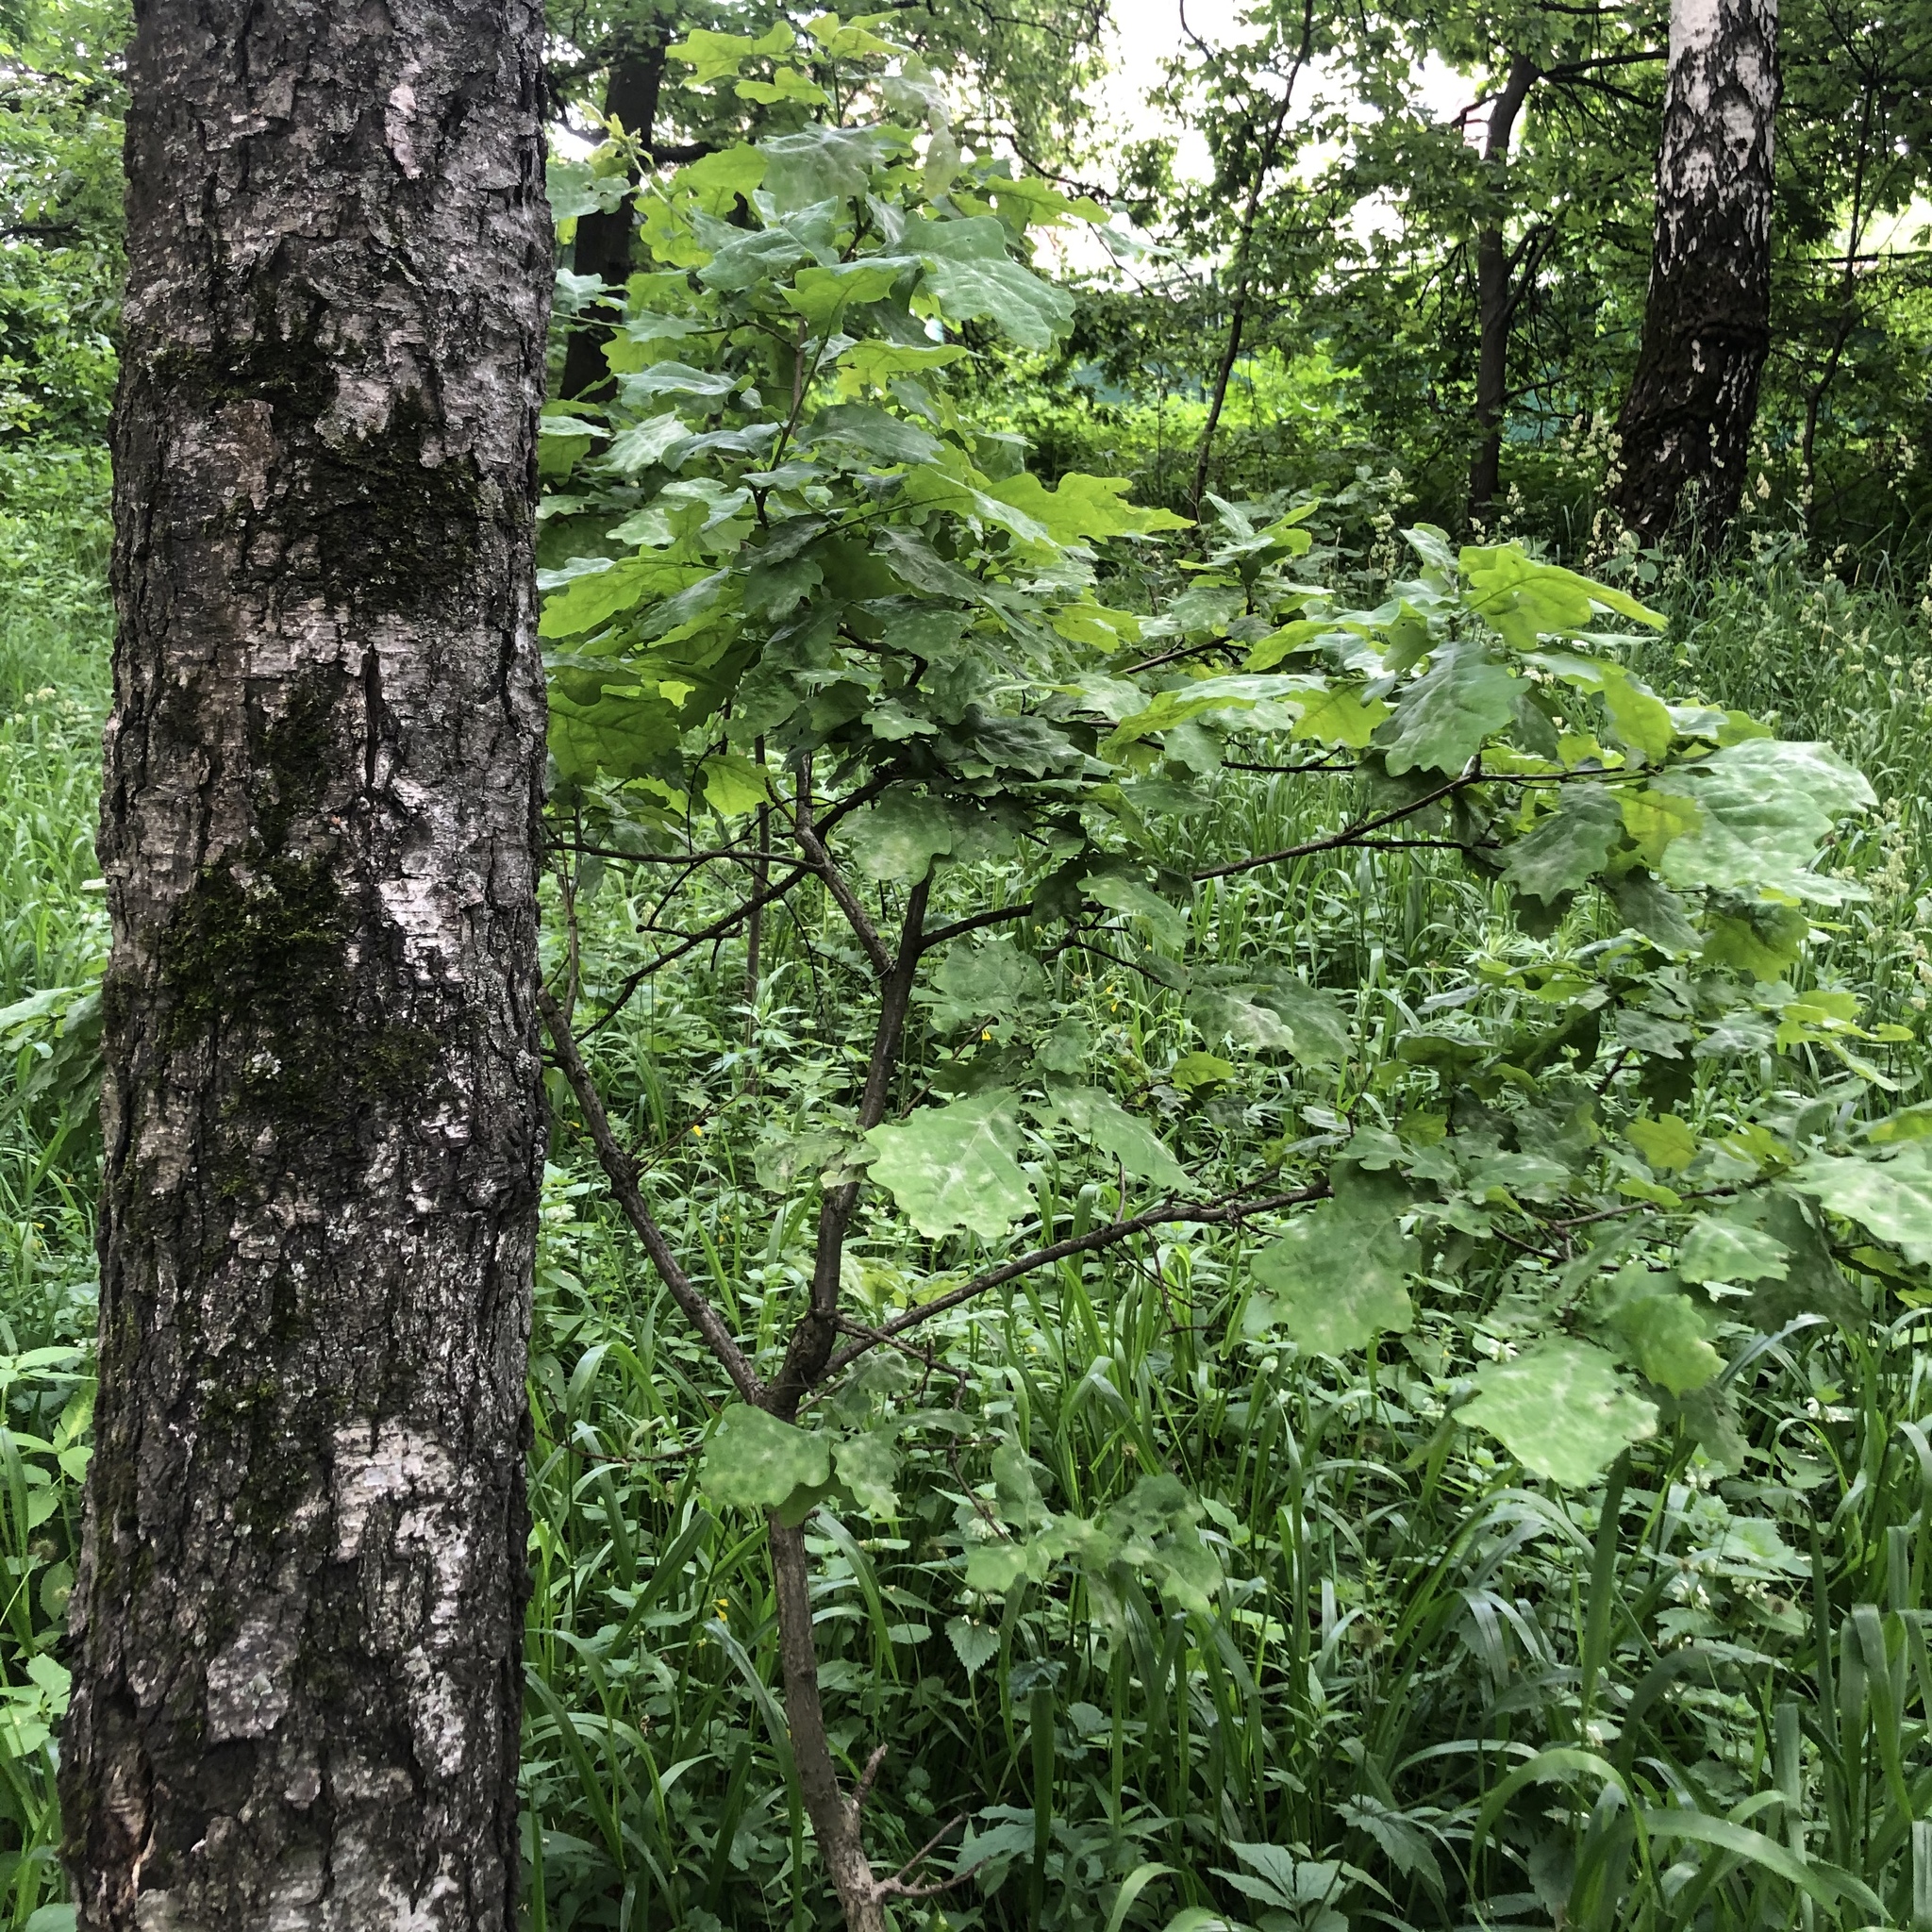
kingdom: Plantae
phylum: Tracheophyta
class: Magnoliopsida
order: Fagales
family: Fagaceae
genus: Quercus
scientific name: Quercus robur
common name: Pedunculate oak
